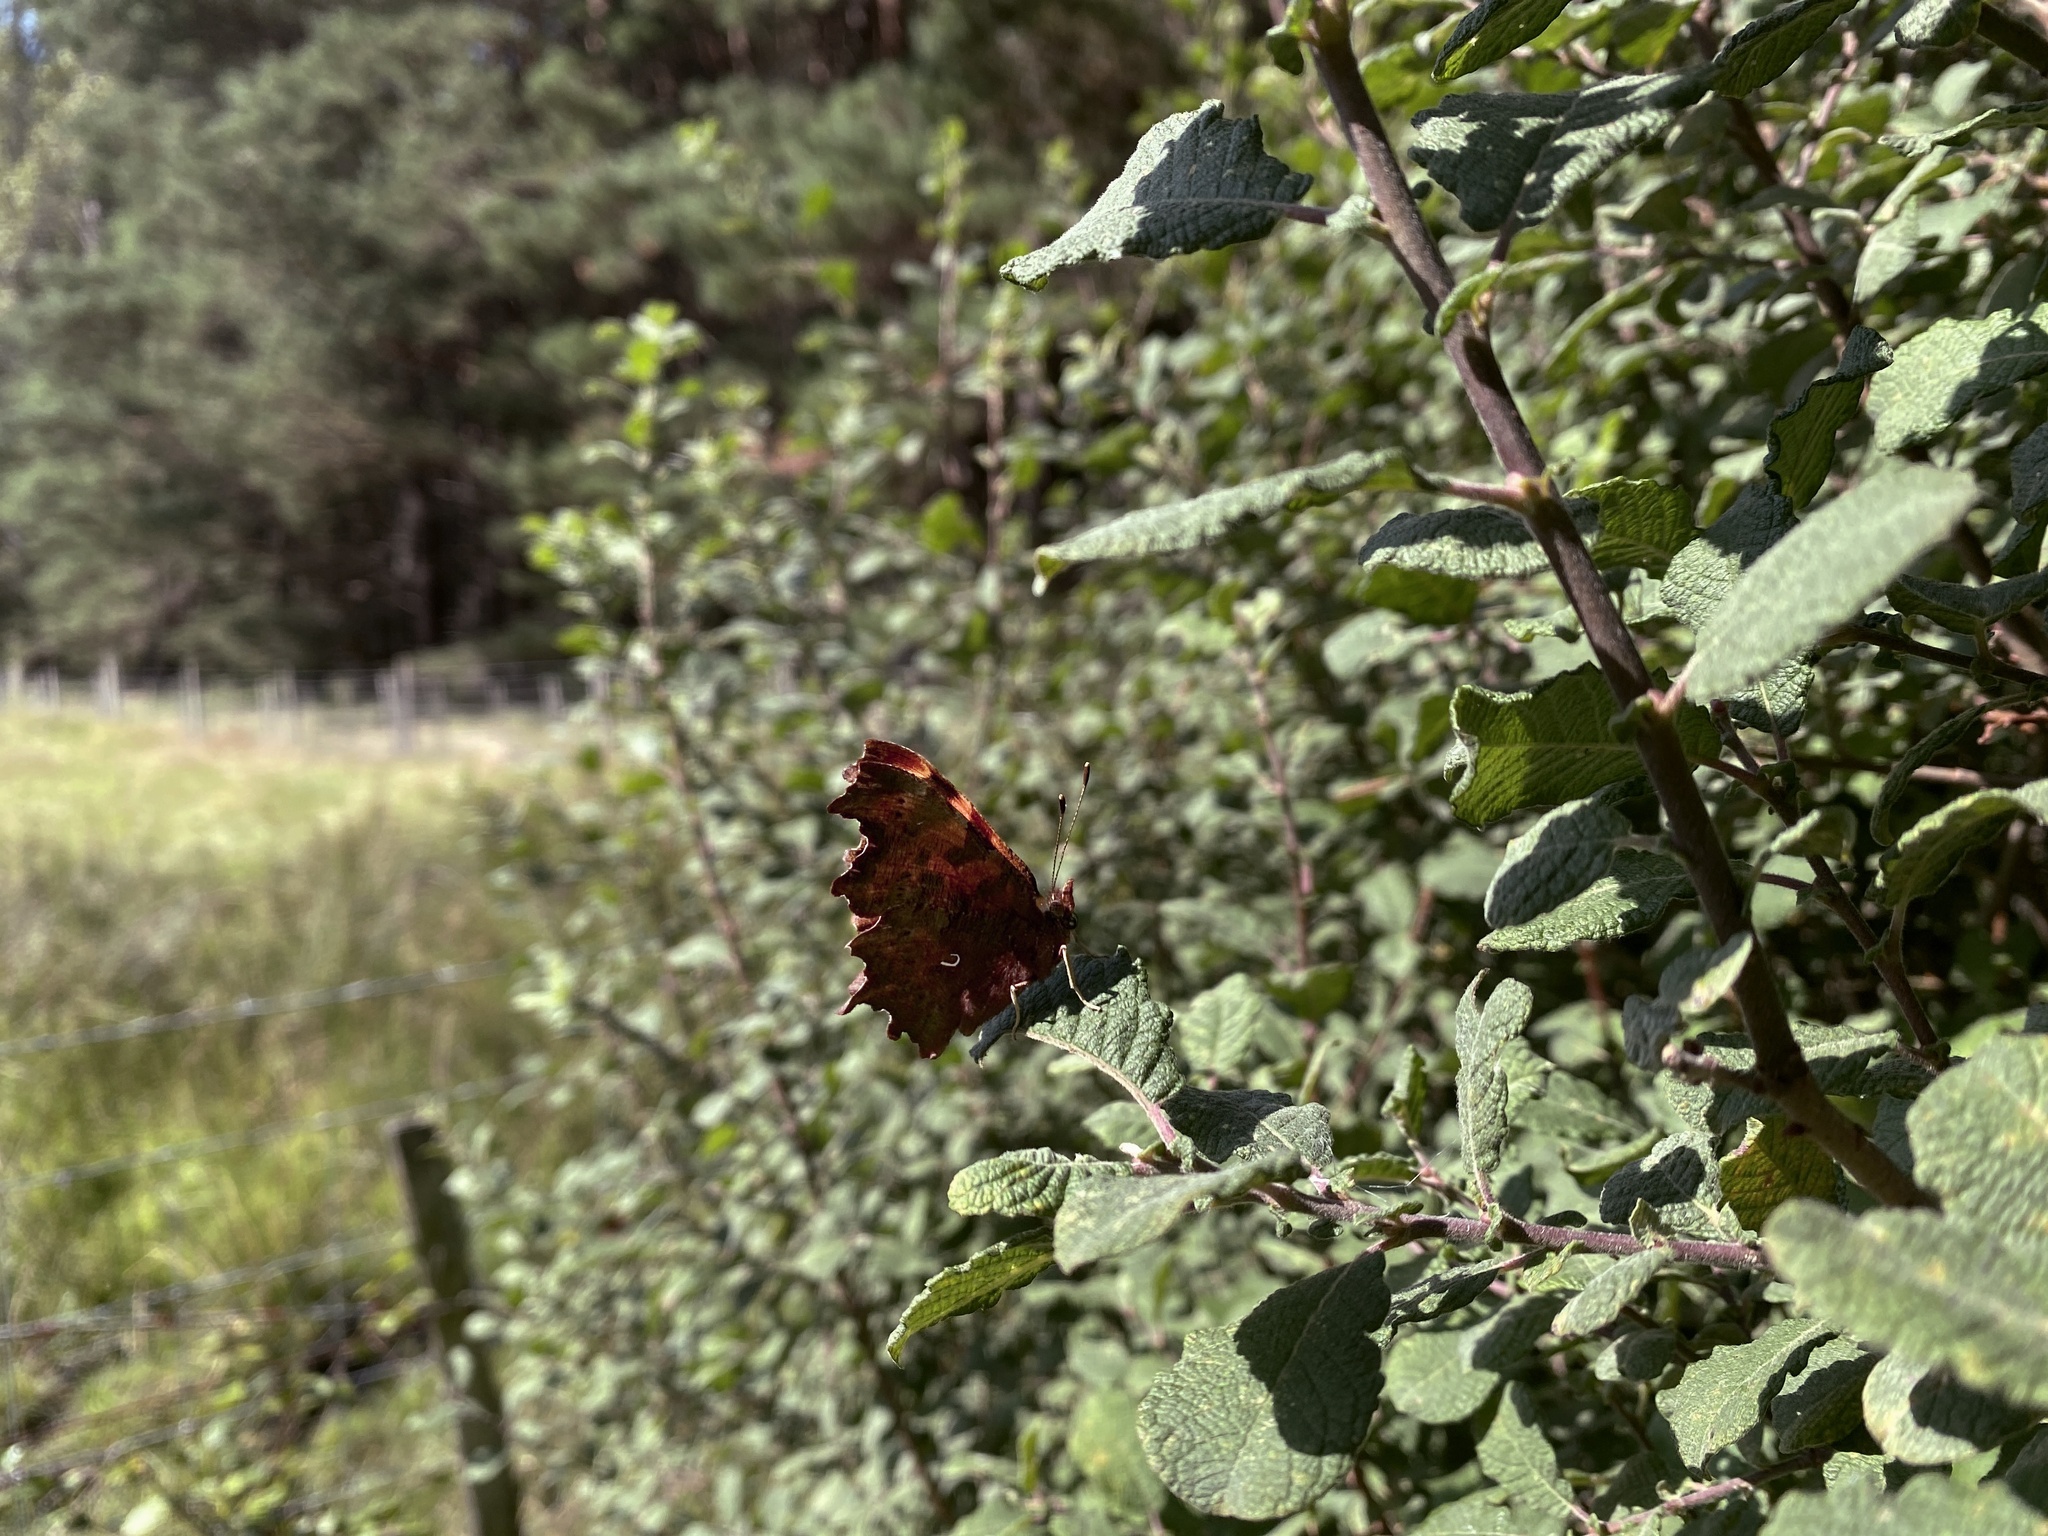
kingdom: Animalia
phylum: Arthropoda
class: Insecta
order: Lepidoptera
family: Nymphalidae
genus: Polygonia
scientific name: Polygonia c-album
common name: Comma
